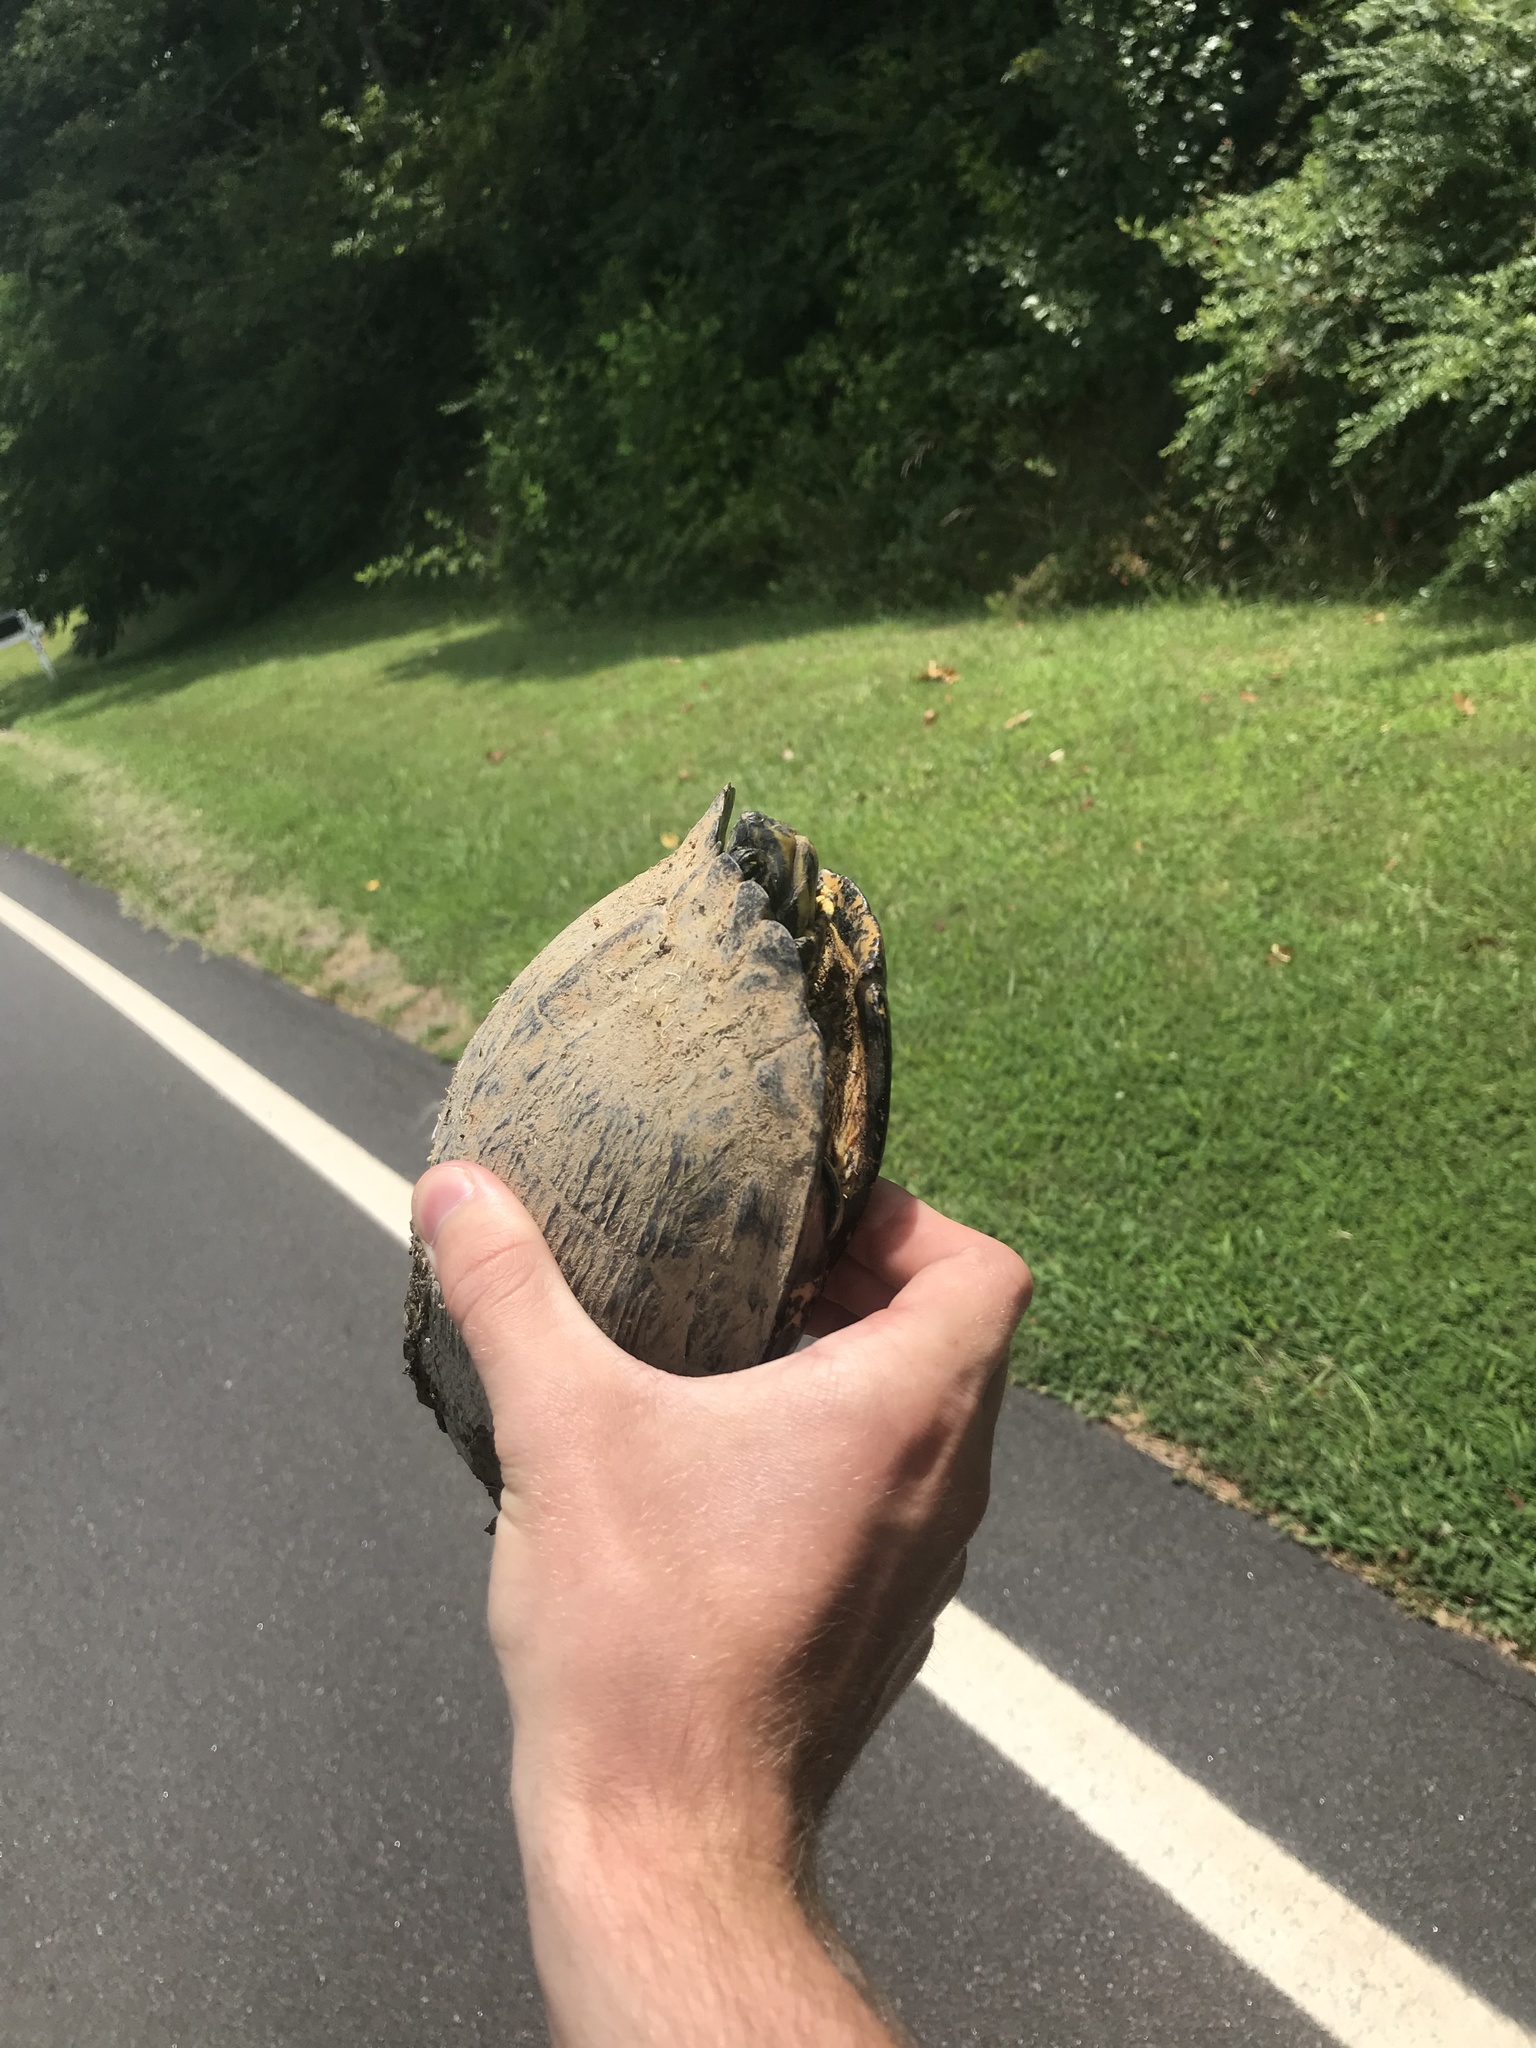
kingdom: Animalia
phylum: Chordata
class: Testudines
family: Emydidae
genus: Trachemys
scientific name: Trachemys scripta
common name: Slider
